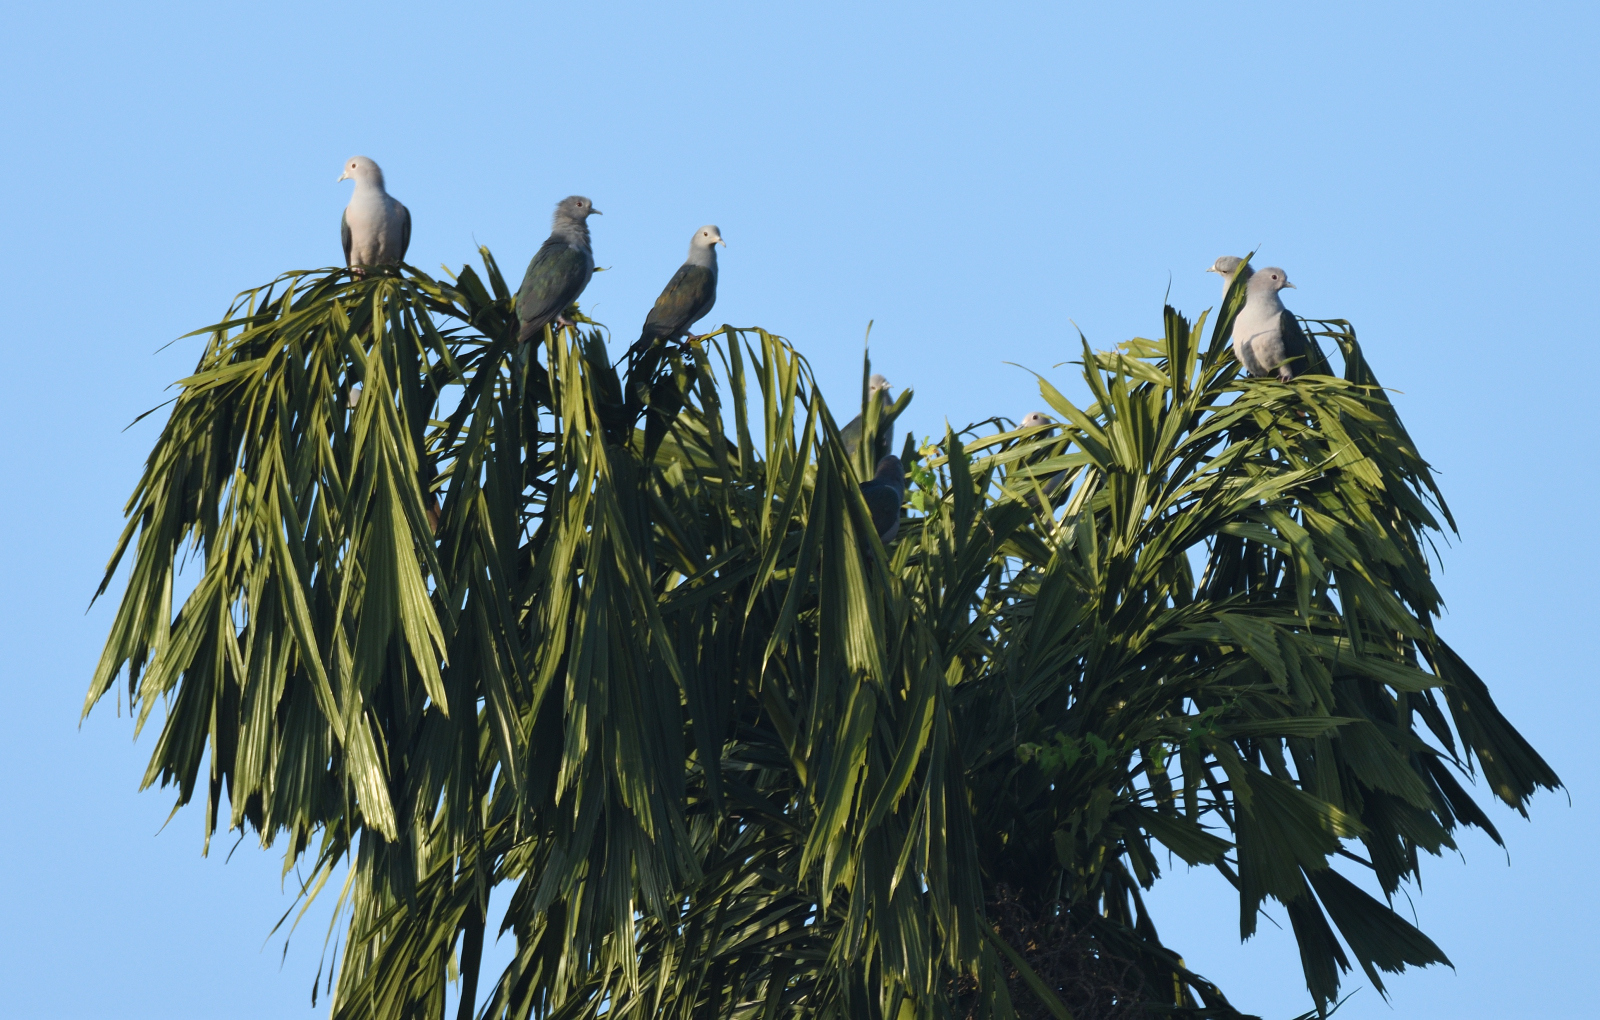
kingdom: Animalia
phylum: Chordata
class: Aves
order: Columbiformes
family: Columbidae
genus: Ducula
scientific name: Ducula aenea
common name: Green imperial pigeon
